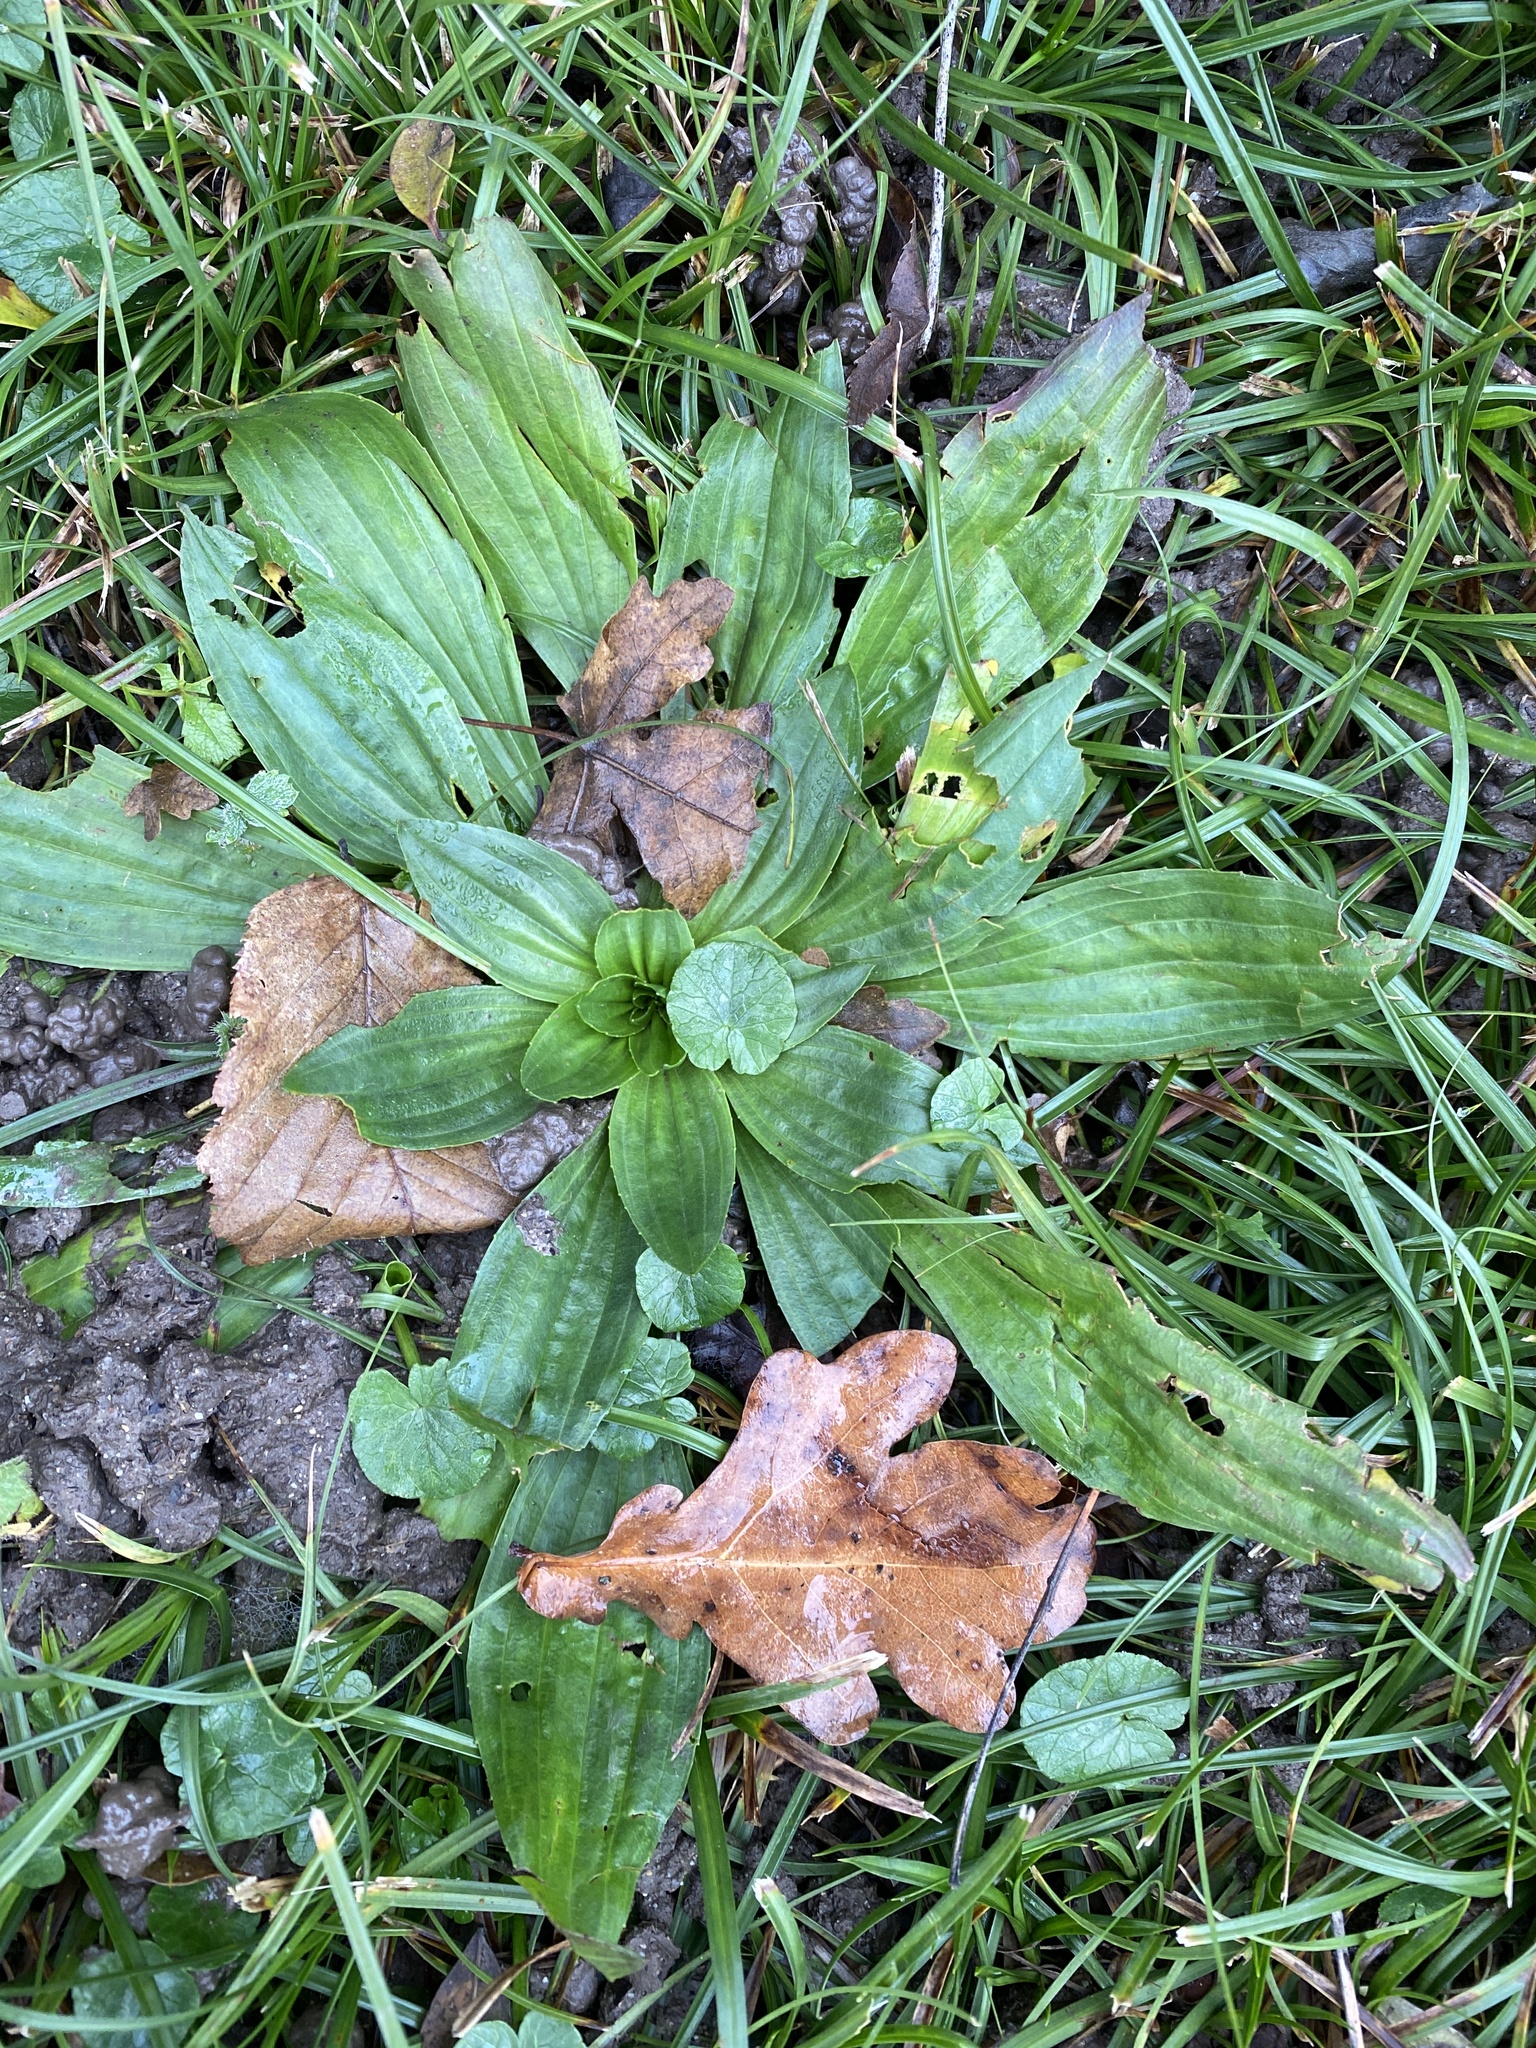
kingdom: Plantae
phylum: Tracheophyta
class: Magnoliopsida
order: Lamiales
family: Plantaginaceae
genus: Plantago
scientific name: Plantago lanceolata
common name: Ribwort plantain
